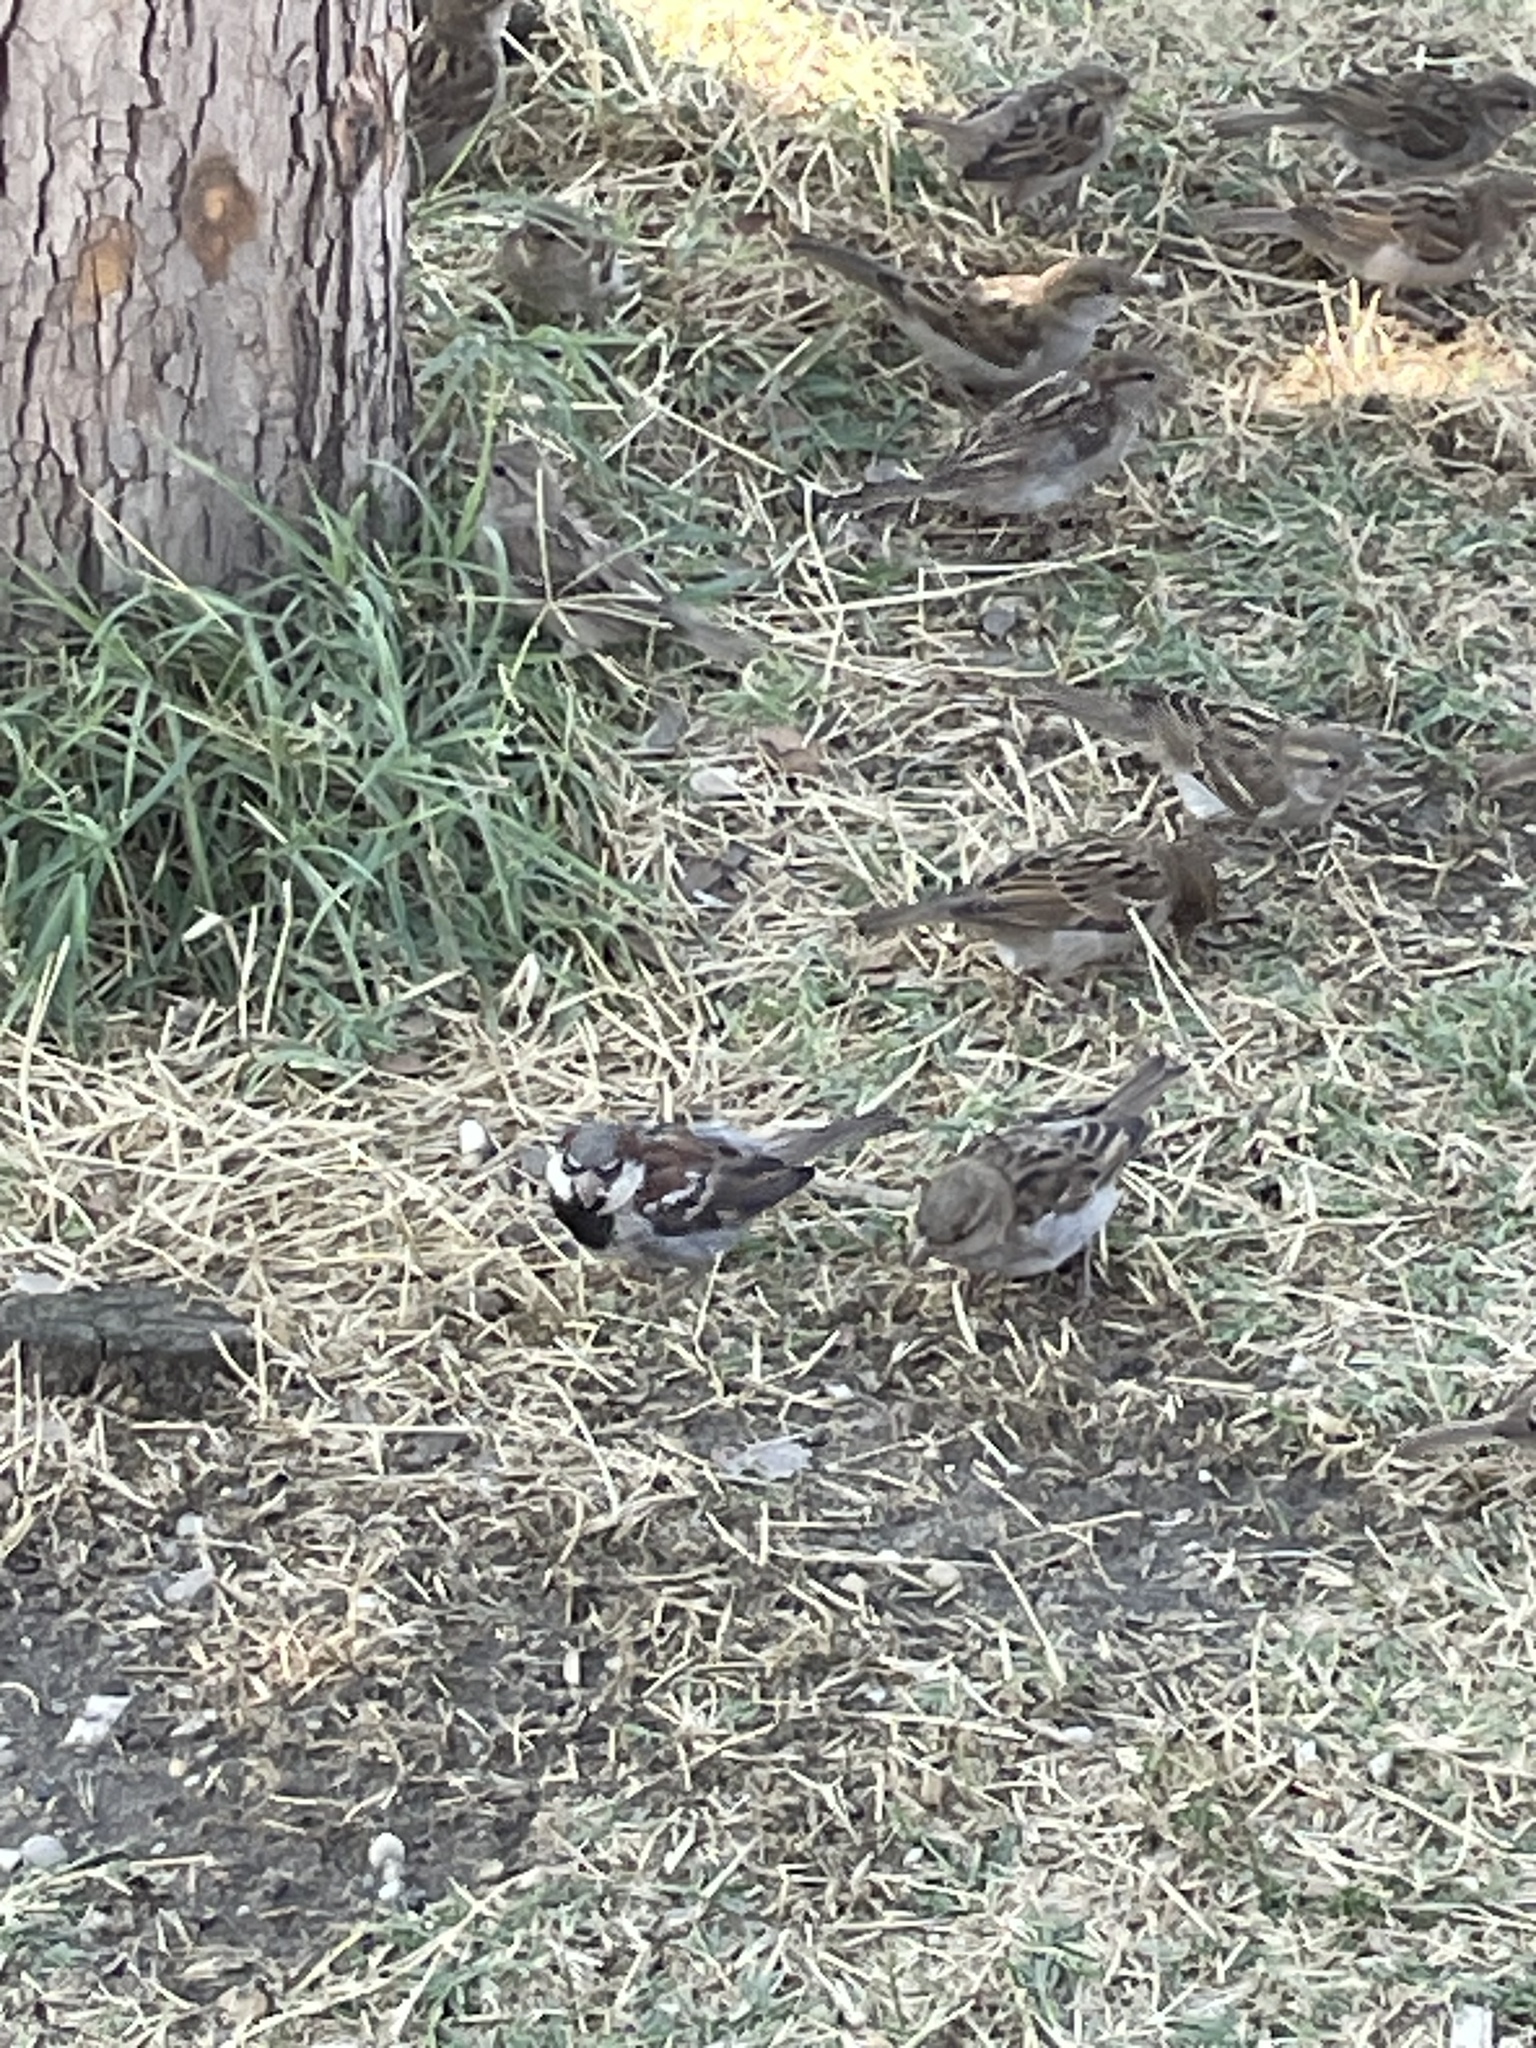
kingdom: Animalia
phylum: Chordata
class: Aves
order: Passeriformes
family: Passeridae
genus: Passer
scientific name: Passer domesticus
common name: House sparrow
